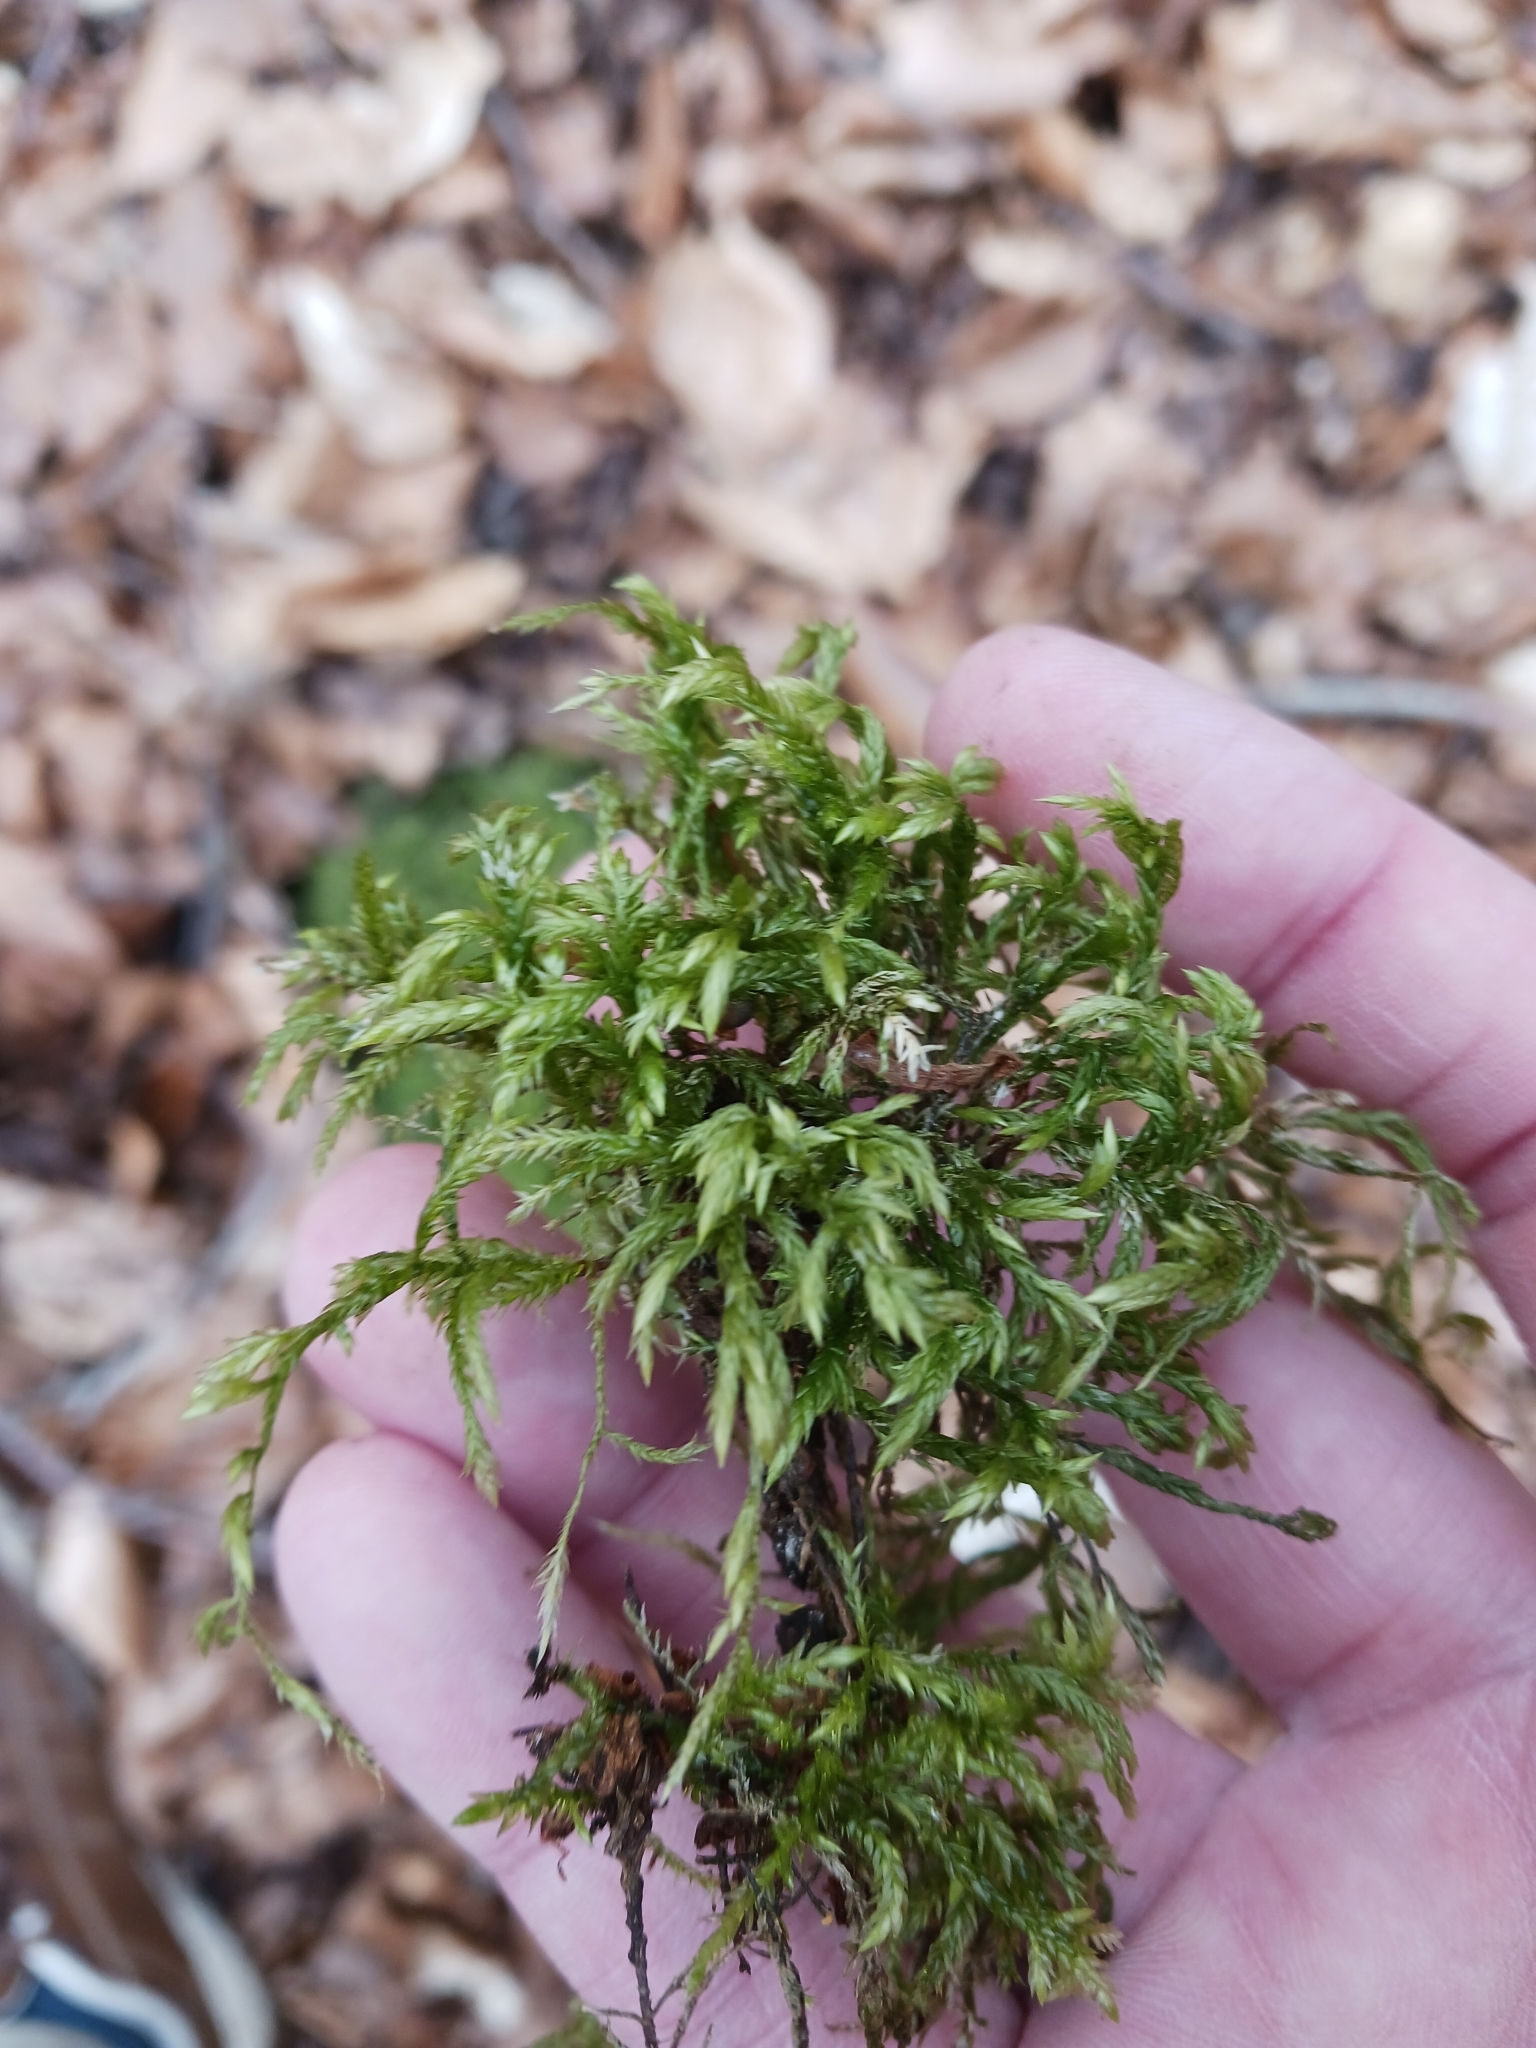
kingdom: Plantae
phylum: Bryophyta
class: Bryopsida
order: Hypnales
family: Lembophyllaceae
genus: Isothecium
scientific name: Isothecium alopecuroides
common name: Larger mouse-tail moss
